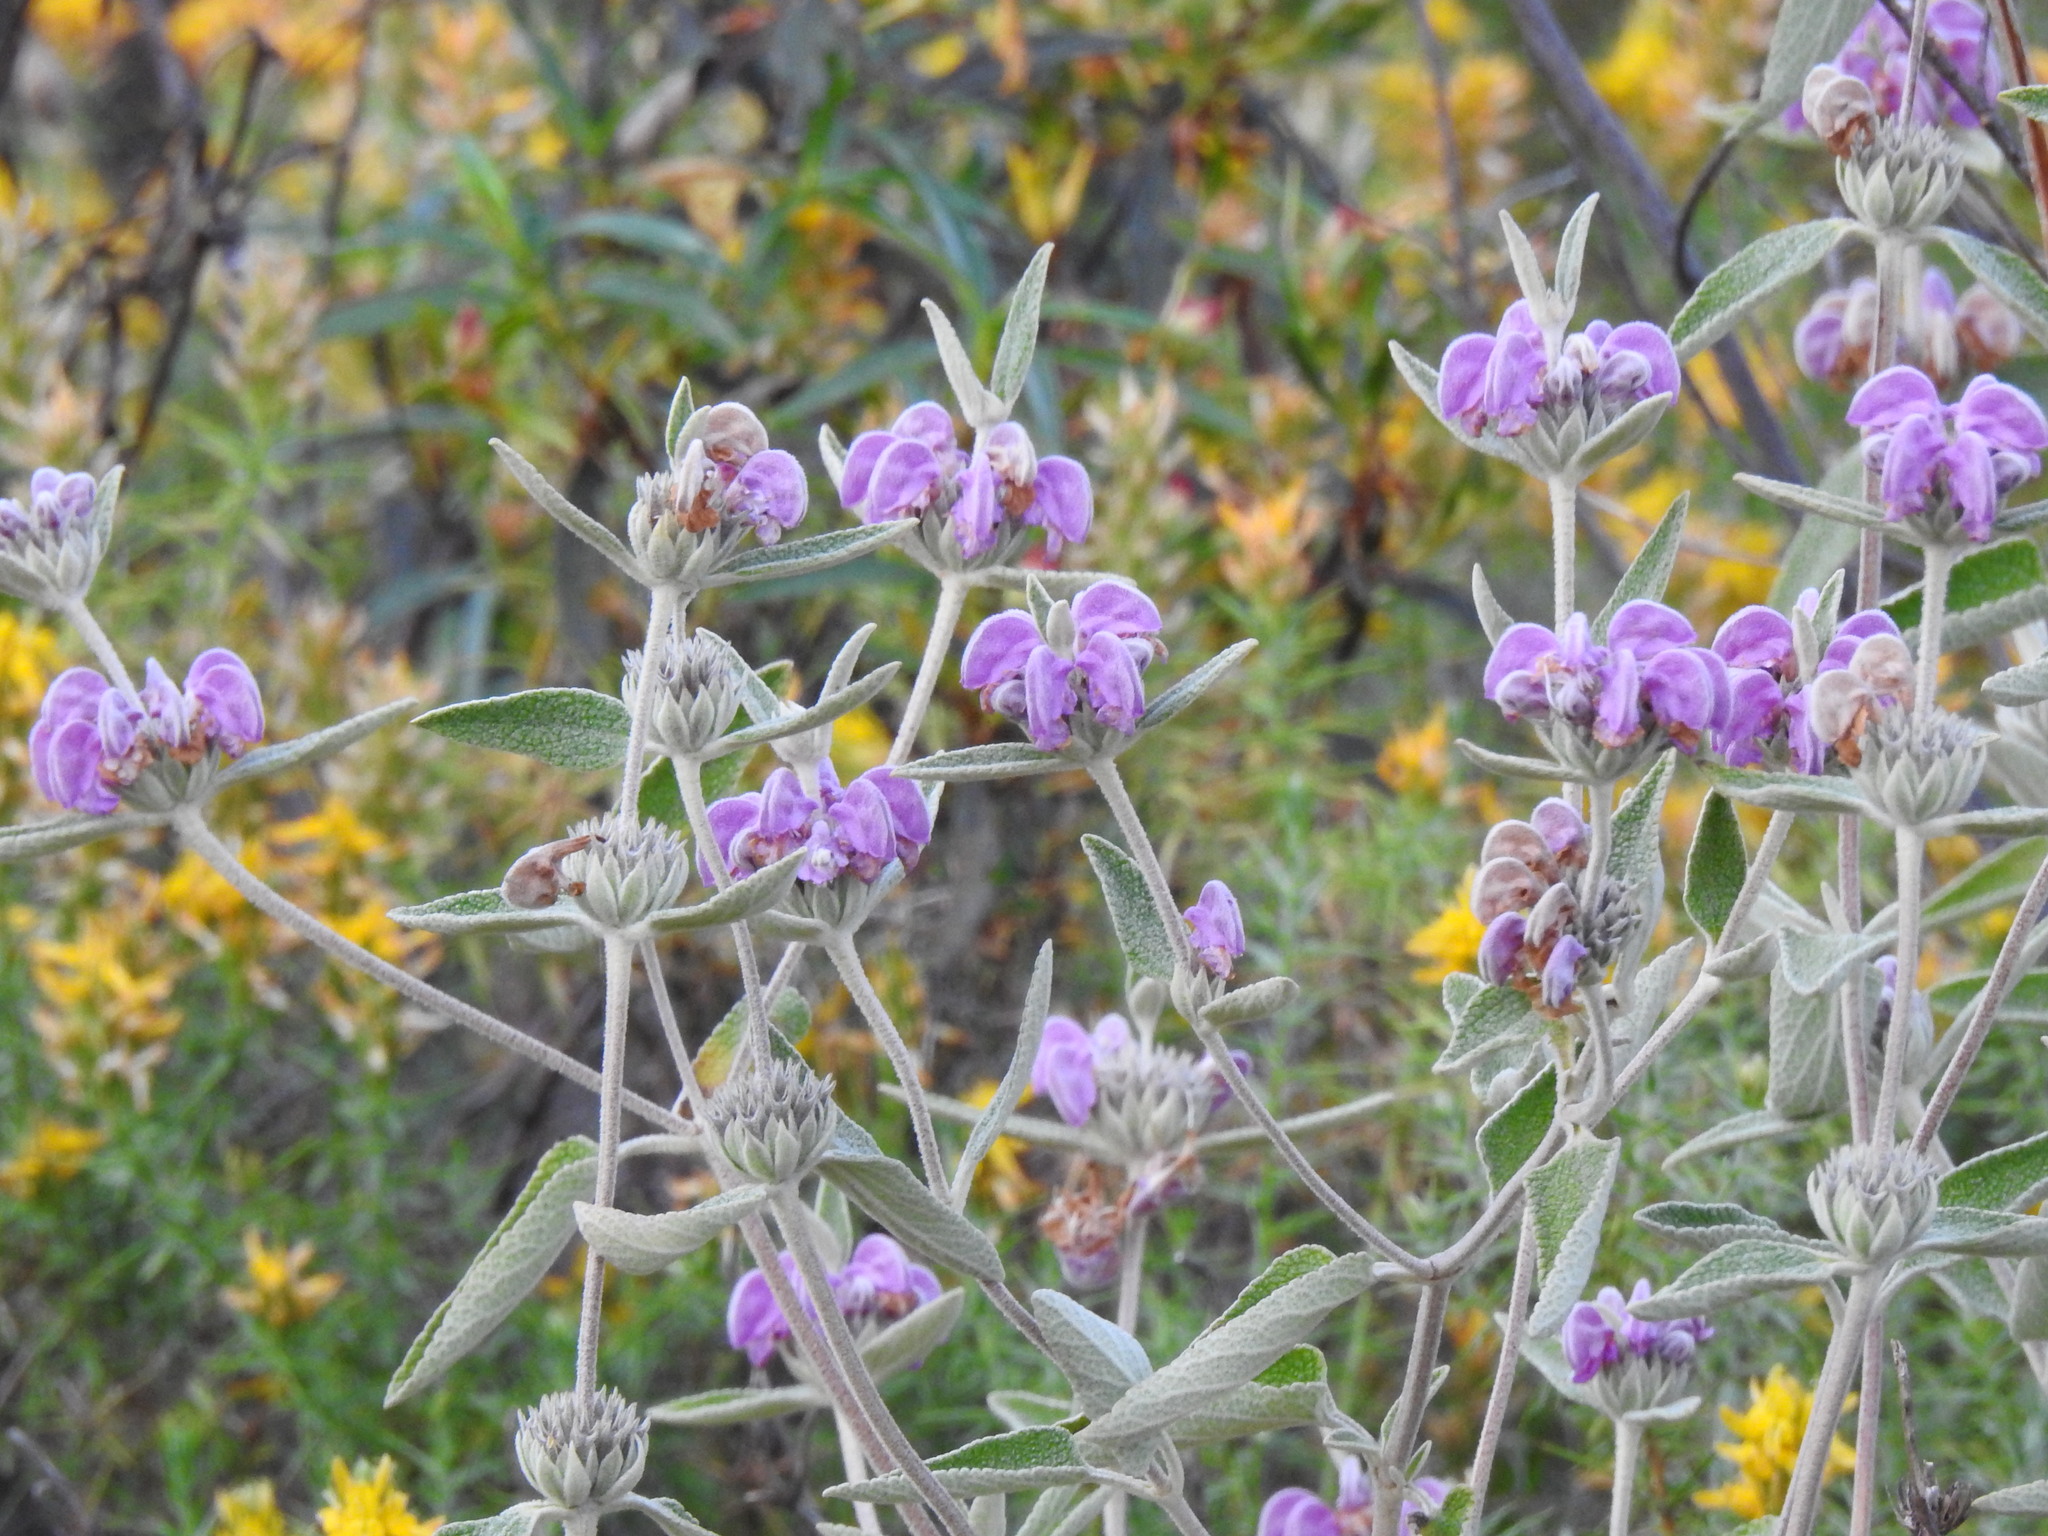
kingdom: Plantae
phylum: Tracheophyta
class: Magnoliopsida
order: Lamiales
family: Lamiaceae
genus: Phlomis
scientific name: Phlomis purpurea
